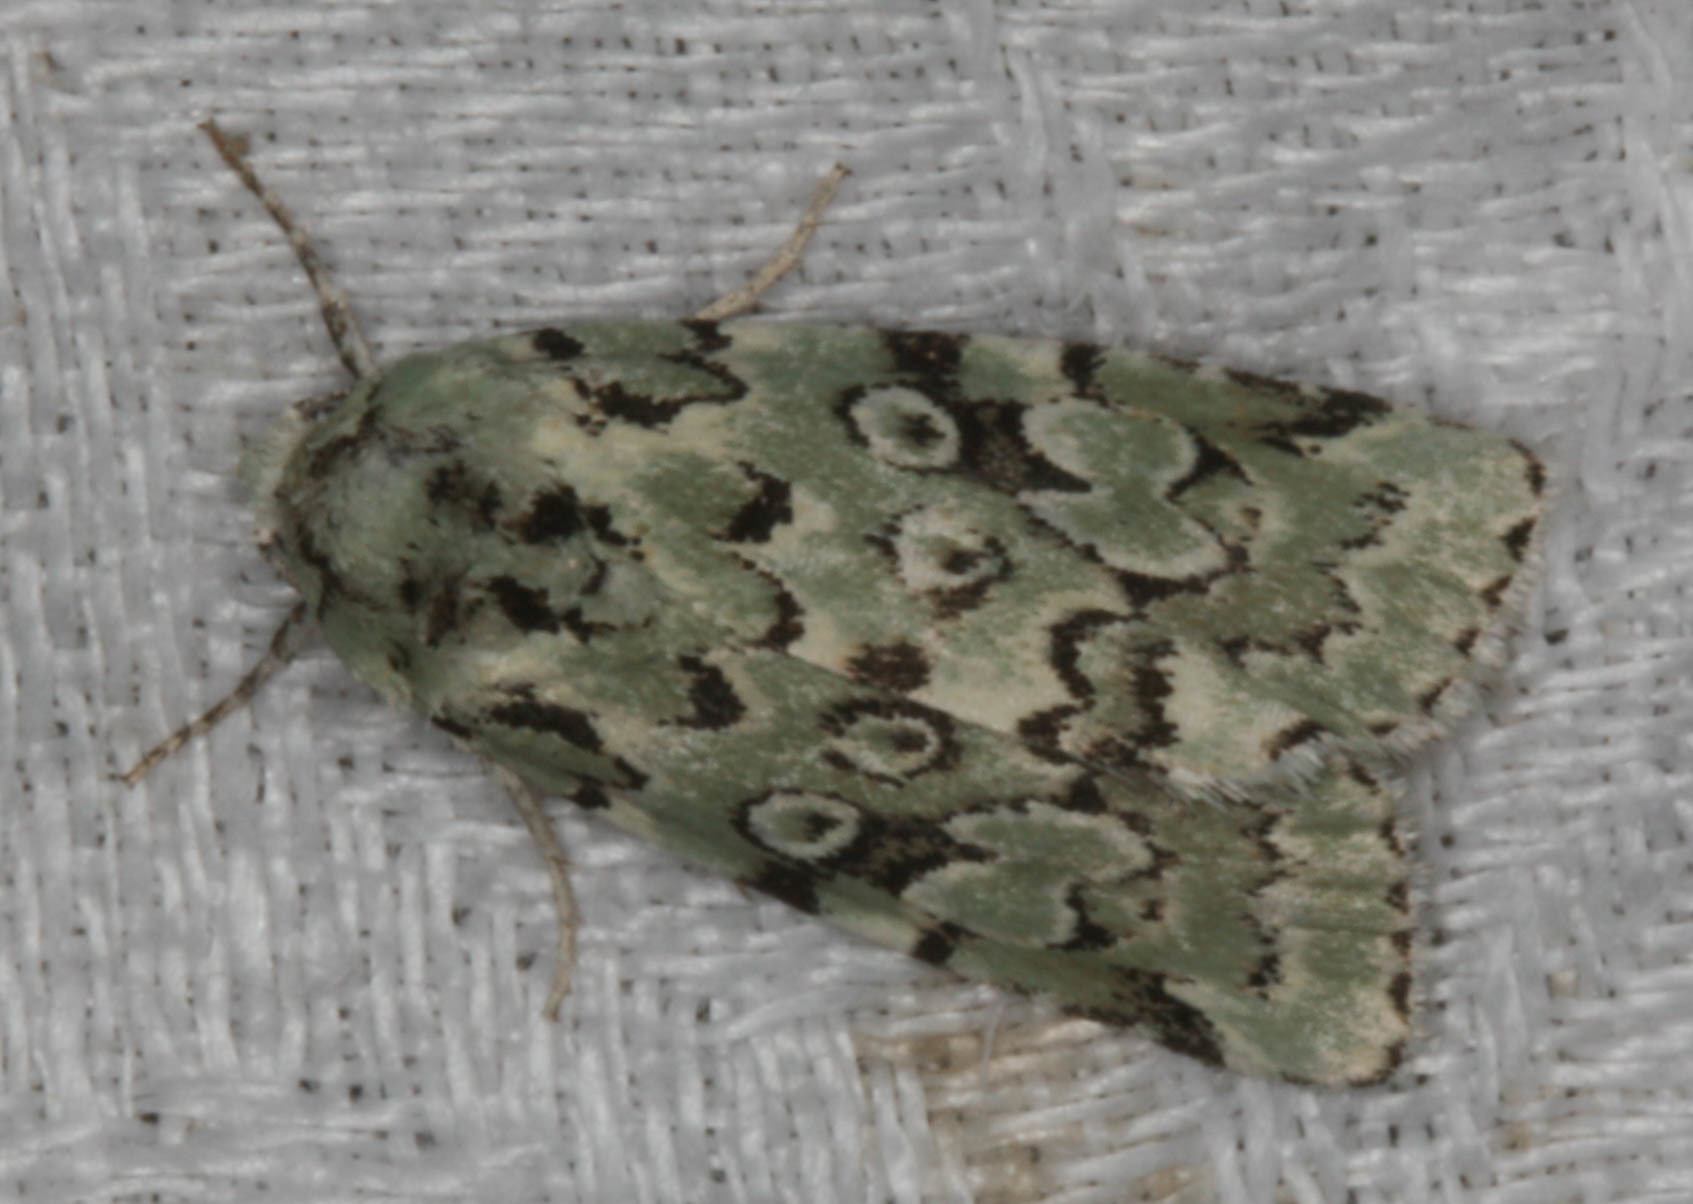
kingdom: Animalia
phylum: Arthropoda
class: Insecta
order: Lepidoptera
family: Noctuidae
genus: Bryolymnia
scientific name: Bryolymnia viridata
